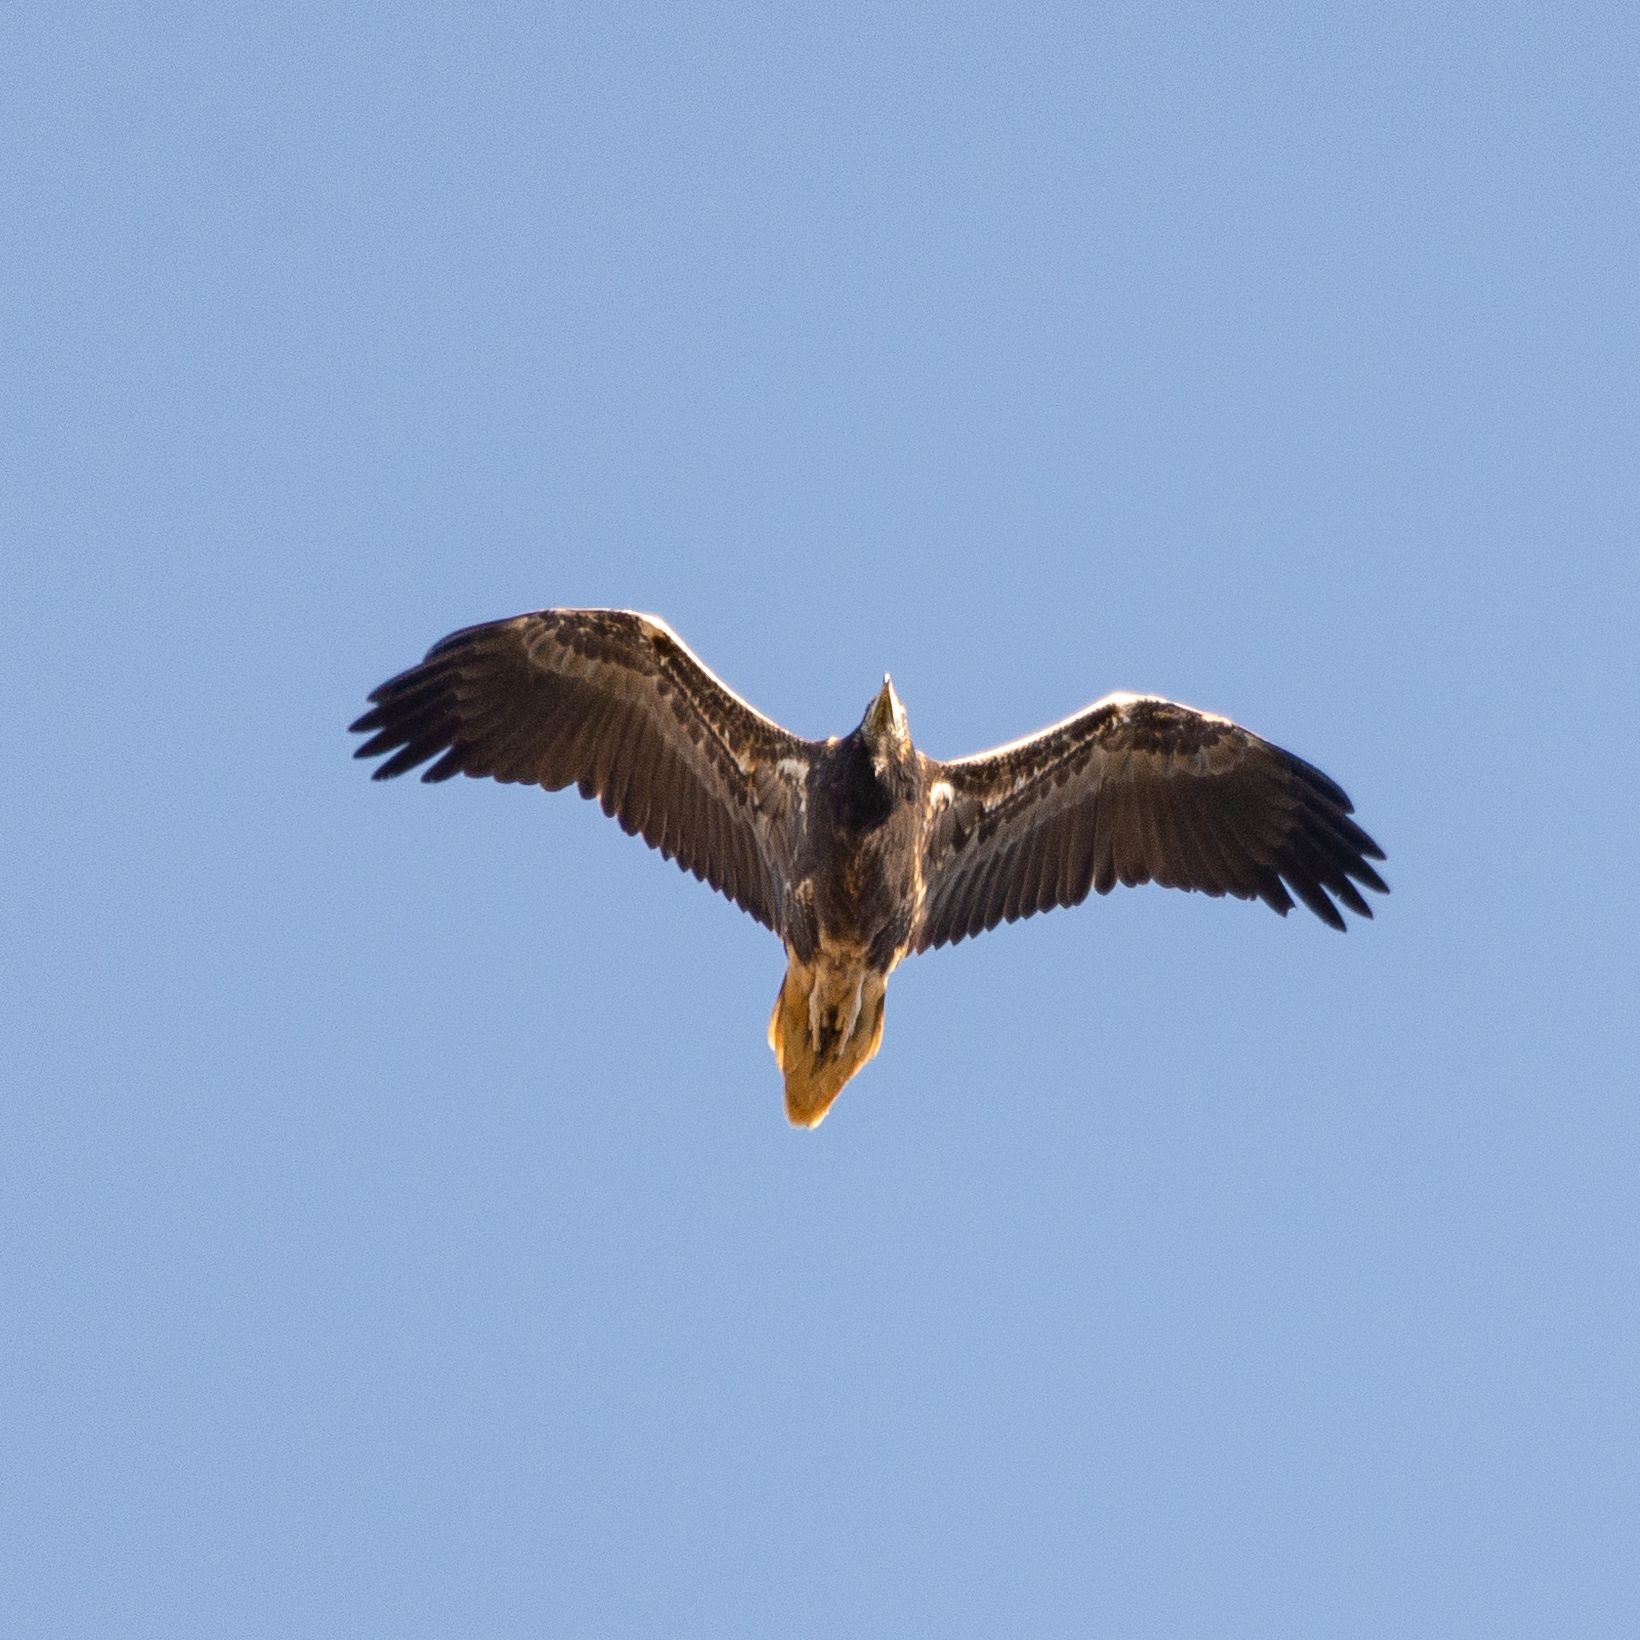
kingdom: Animalia
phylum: Chordata
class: Aves
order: Accipitriformes
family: Accipitridae
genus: Neophron
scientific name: Neophron percnopterus
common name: Egyptian vulture
